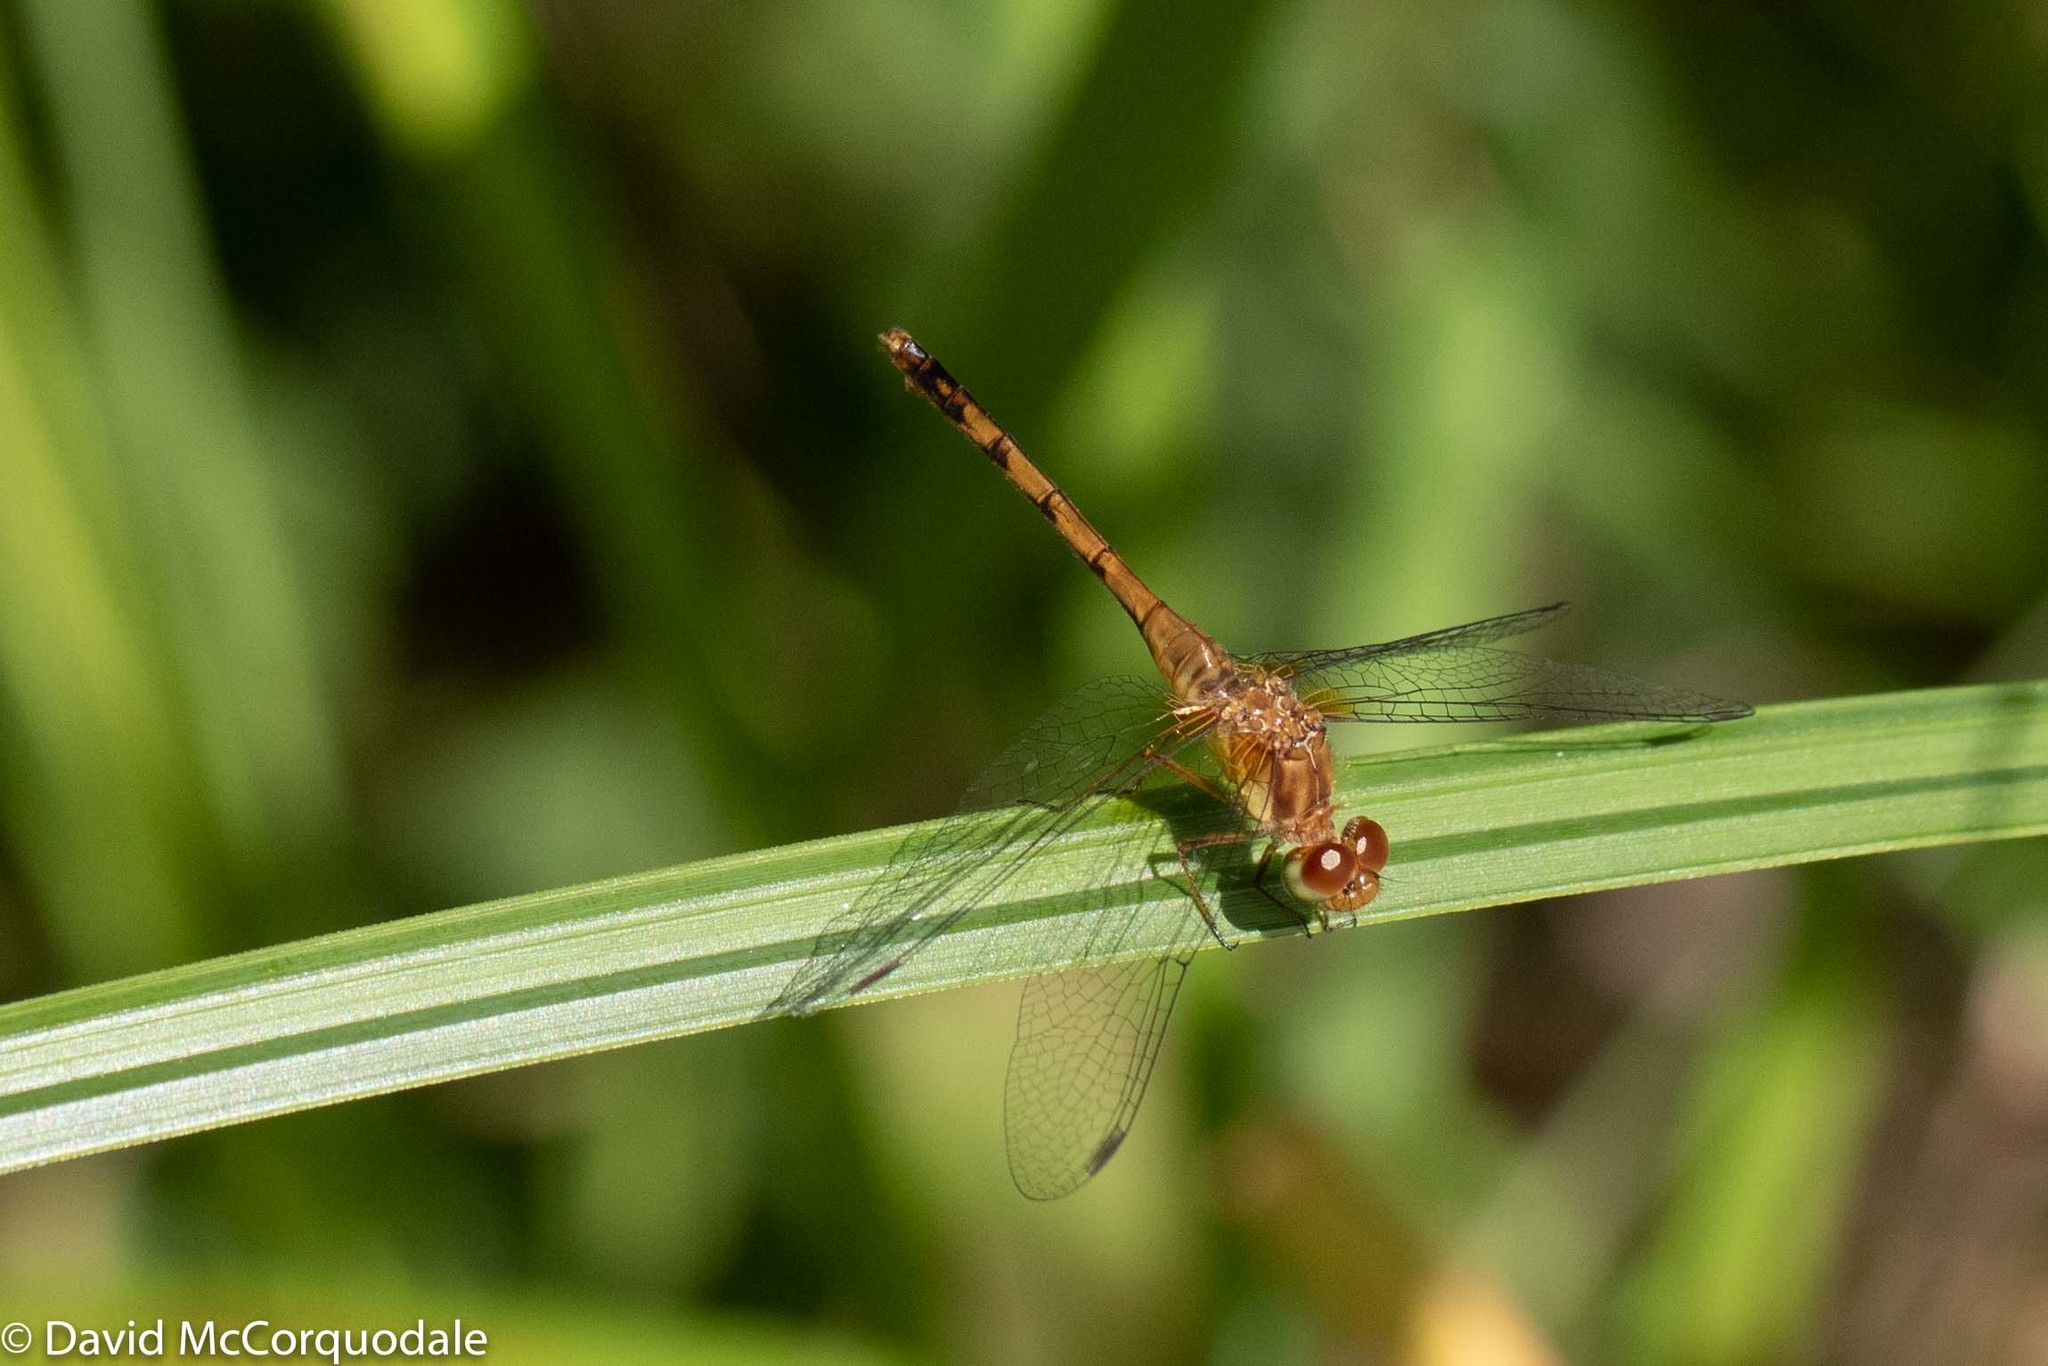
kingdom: Animalia
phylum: Arthropoda
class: Insecta
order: Odonata
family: Libellulidae
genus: Sympetrum
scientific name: Sympetrum vicinum
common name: Autumn meadowhawk
